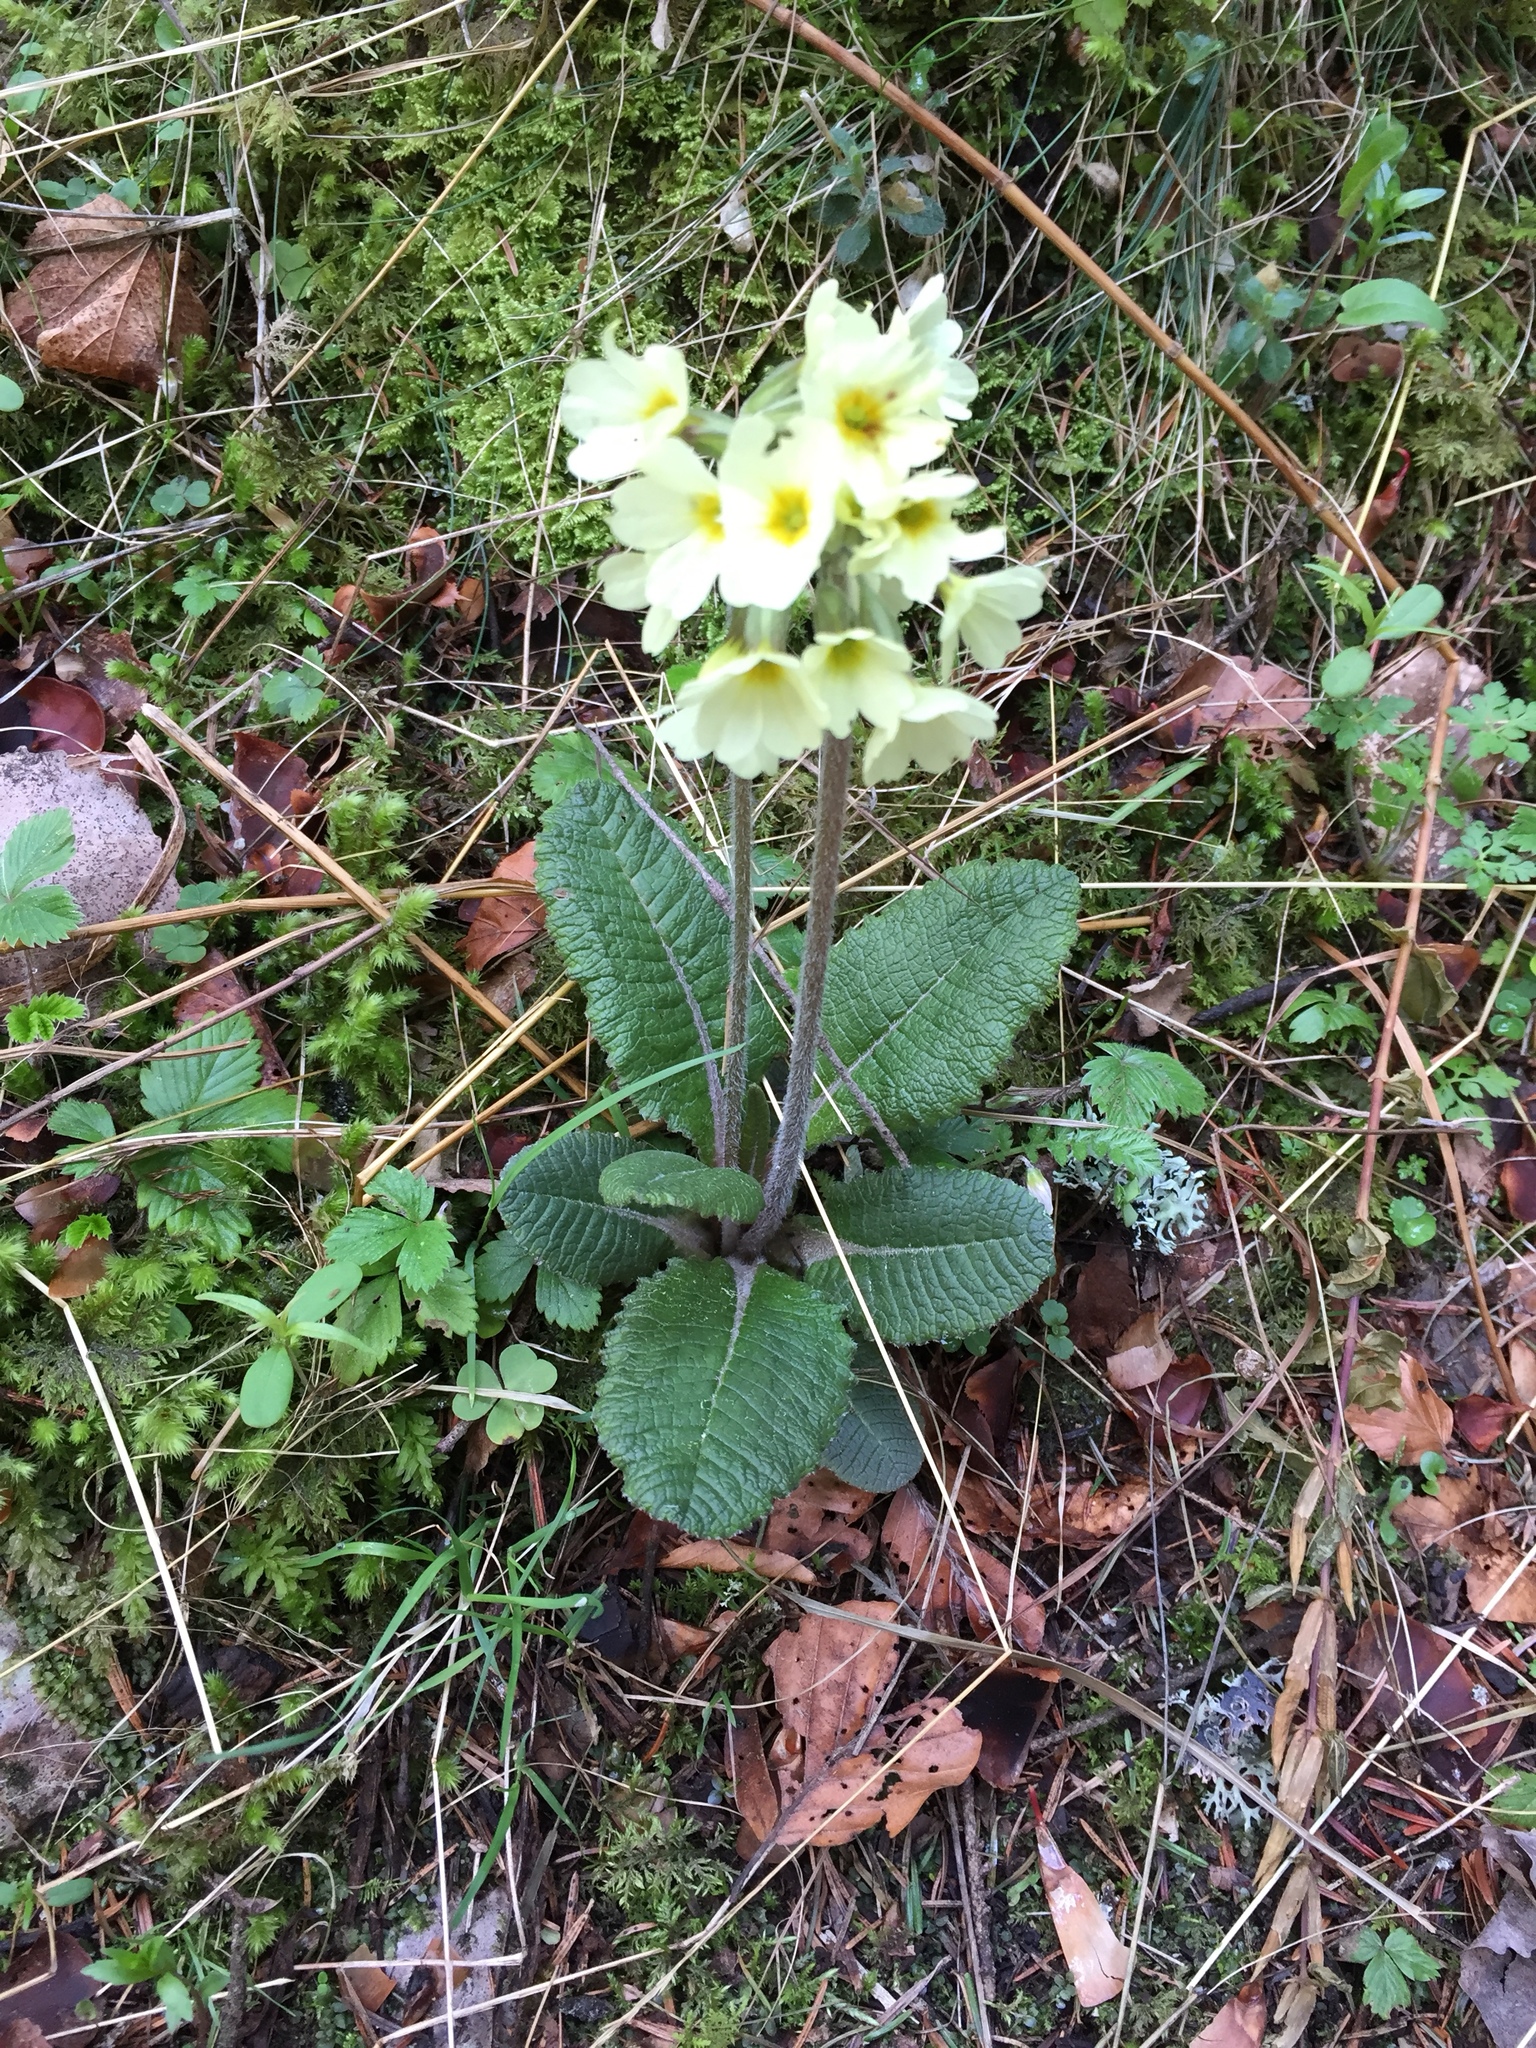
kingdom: Plantae
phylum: Tracheophyta
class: Magnoliopsida
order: Ericales
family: Primulaceae
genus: Primula
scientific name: Primula elatior
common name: Oxlip
